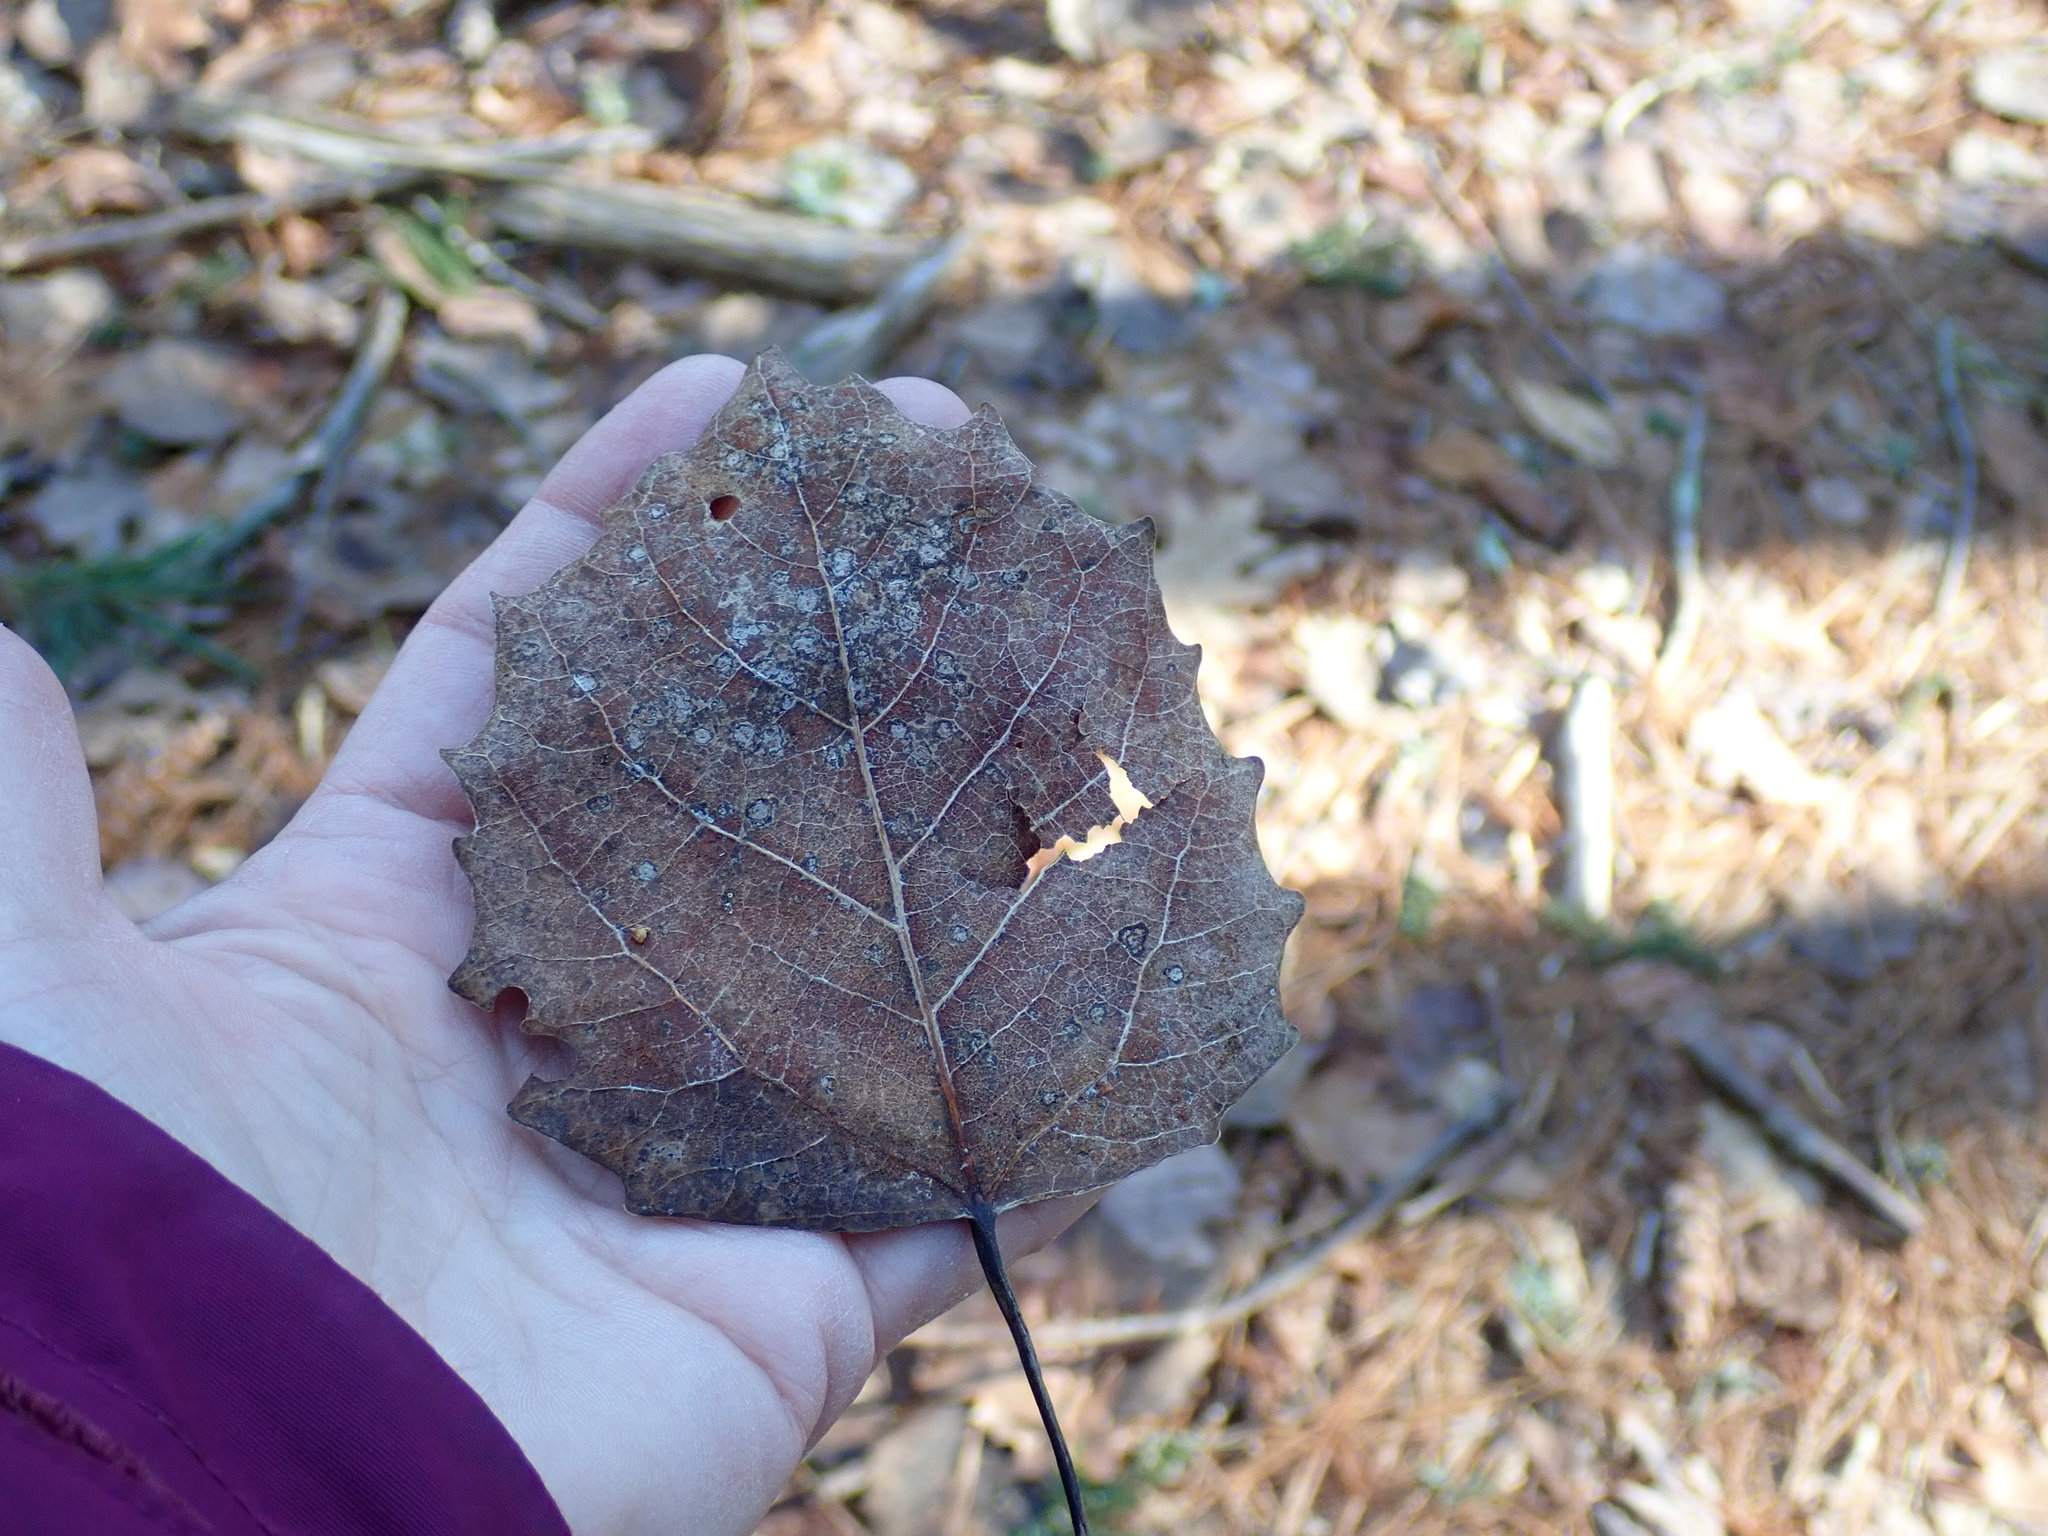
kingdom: Plantae
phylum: Tracheophyta
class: Magnoliopsida
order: Malpighiales
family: Salicaceae
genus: Populus
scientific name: Populus grandidentata
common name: Bigtooth aspen
